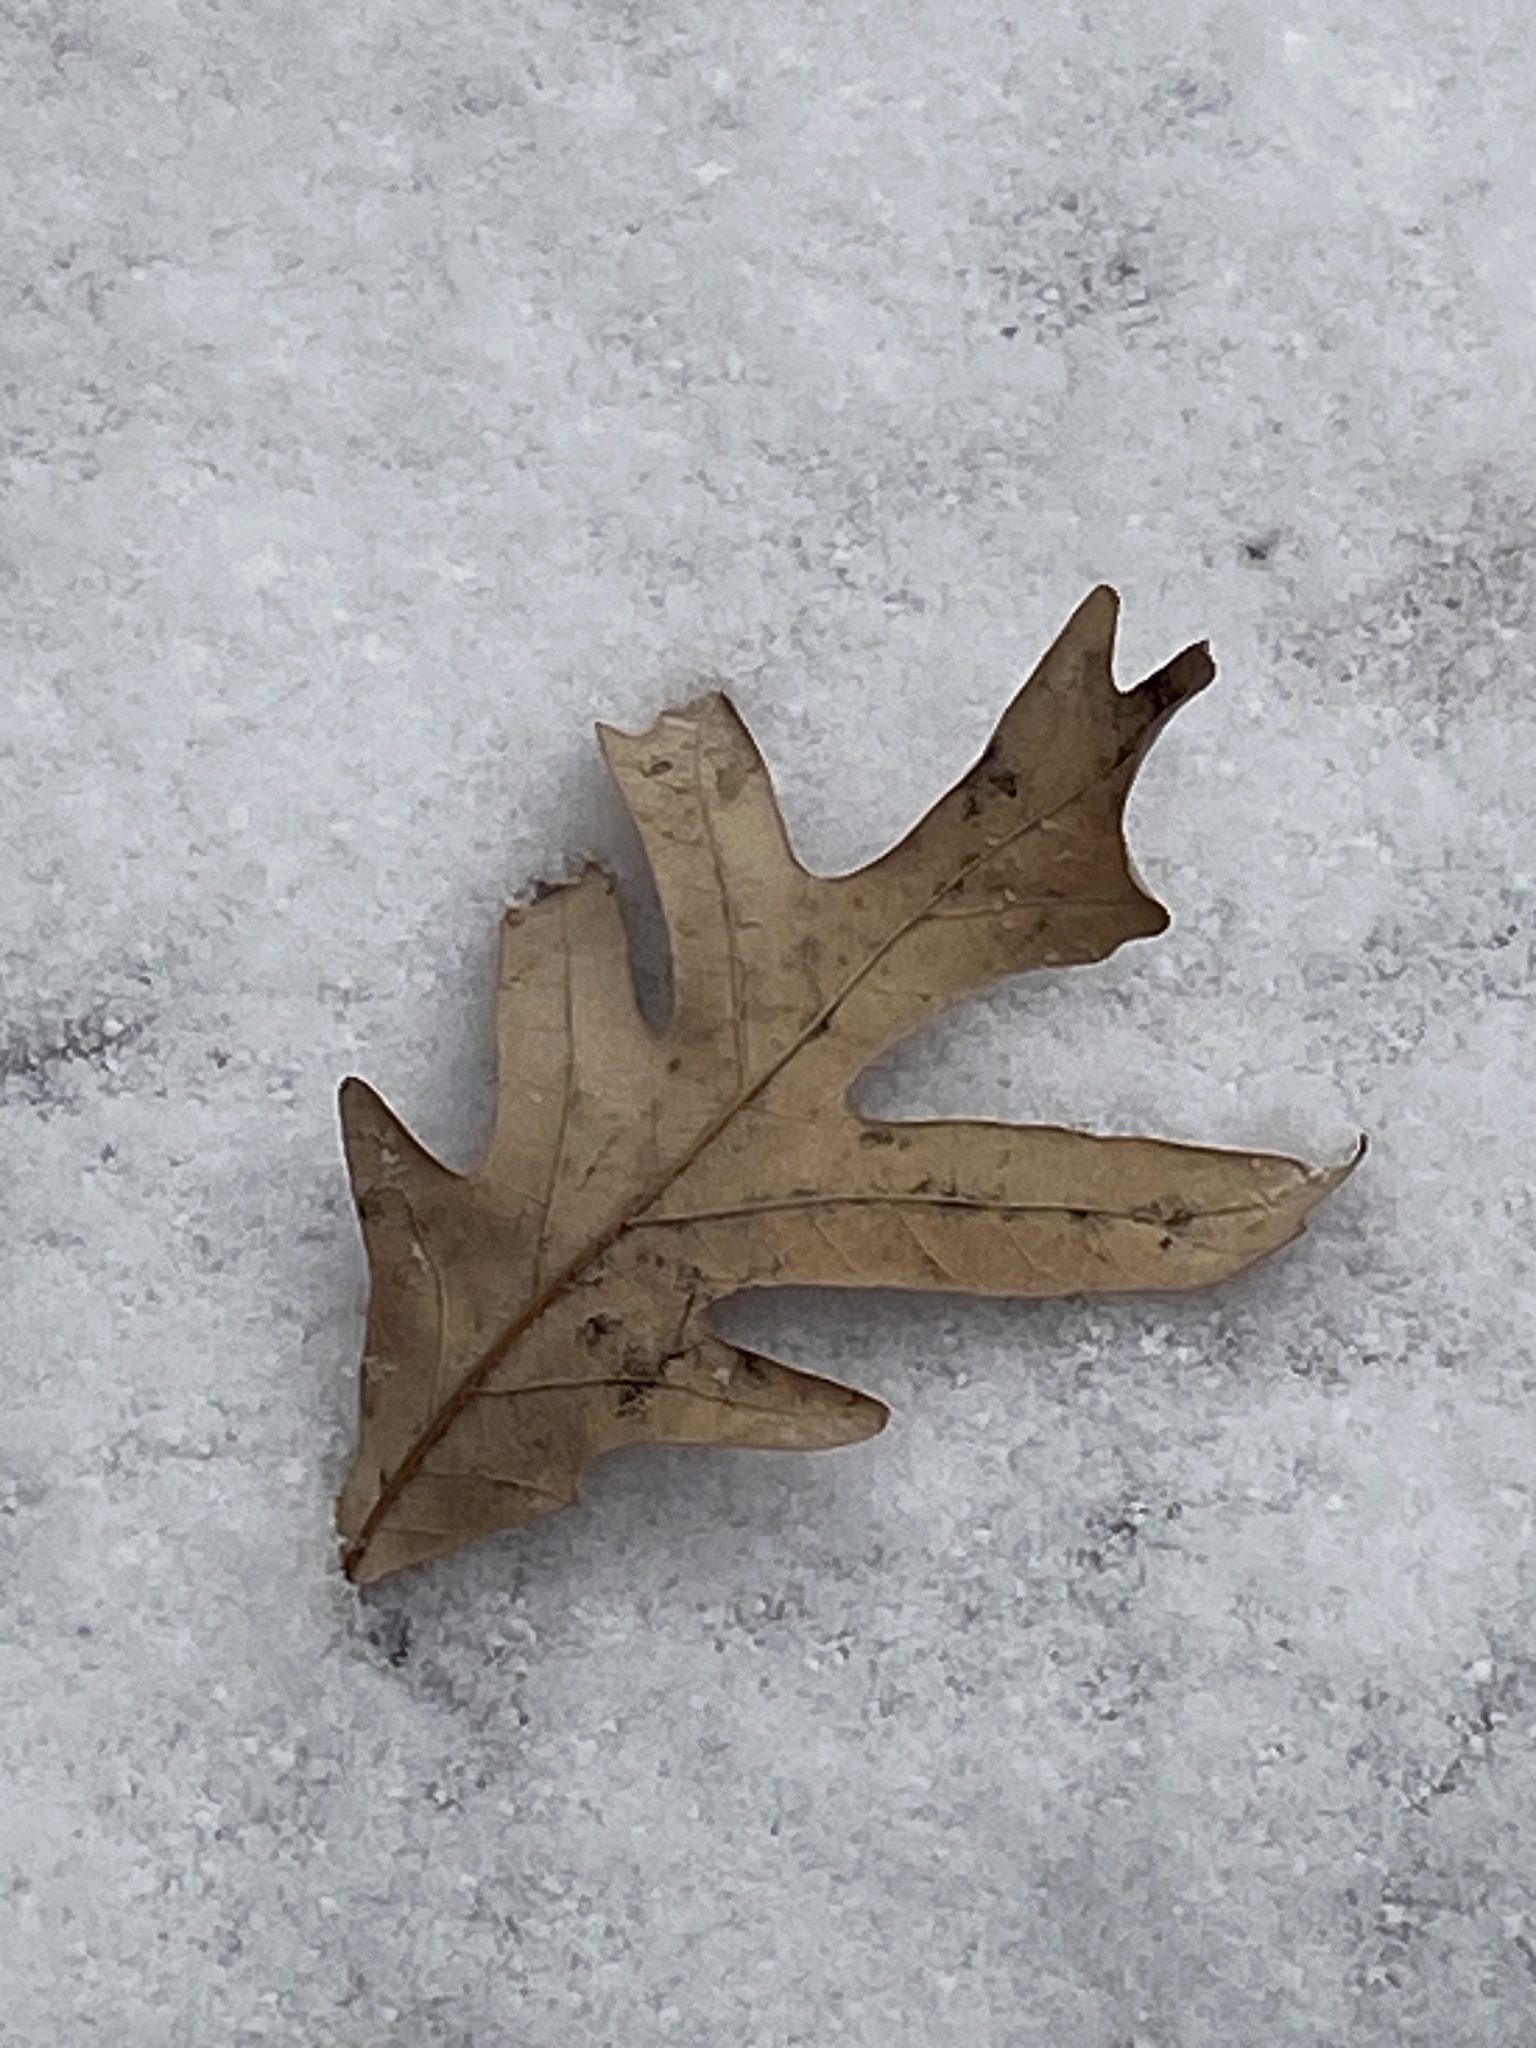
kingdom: Plantae
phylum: Tracheophyta
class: Magnoliopsida
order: Fagales
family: Fagaceae
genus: Quercus
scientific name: Quercus alba
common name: White oak
